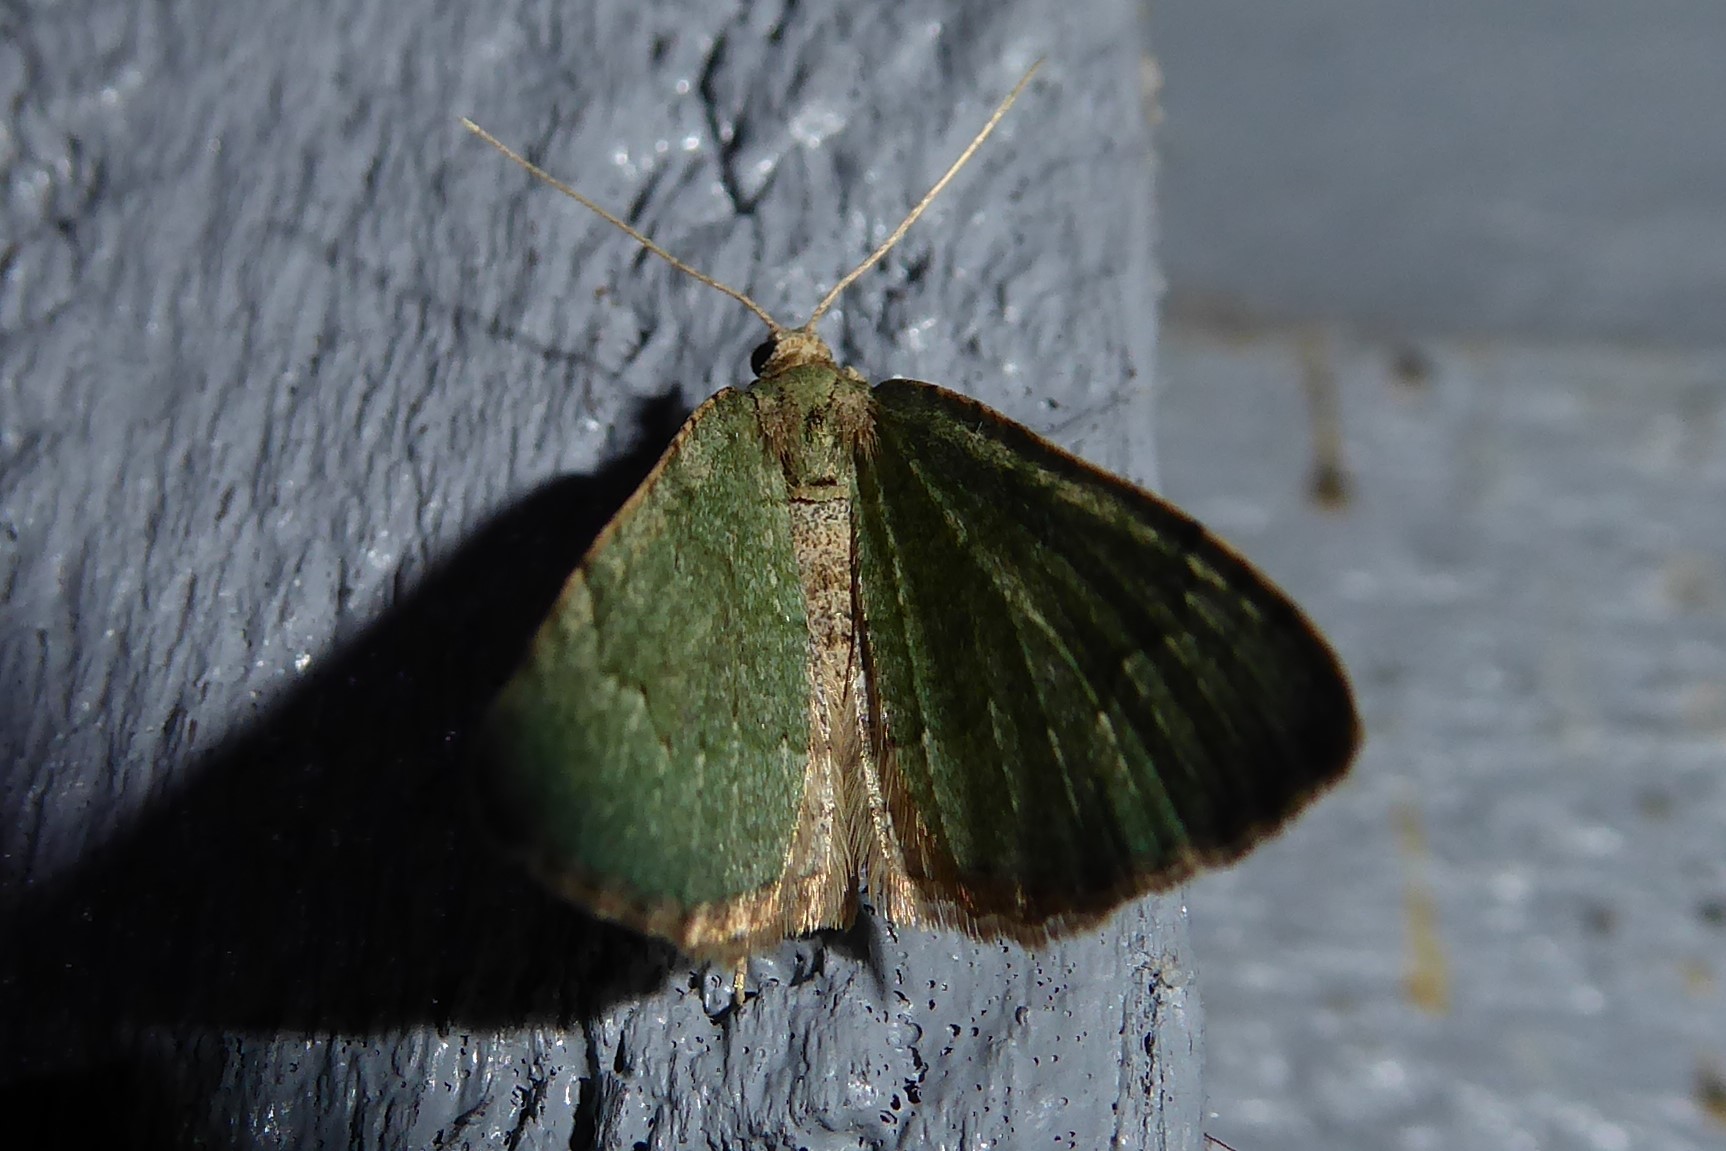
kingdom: Animalia
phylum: Arthropoda
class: Insecta
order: Lepidoptera
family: Geometridae
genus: Epyaxa
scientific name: Epyaxa rosearia
